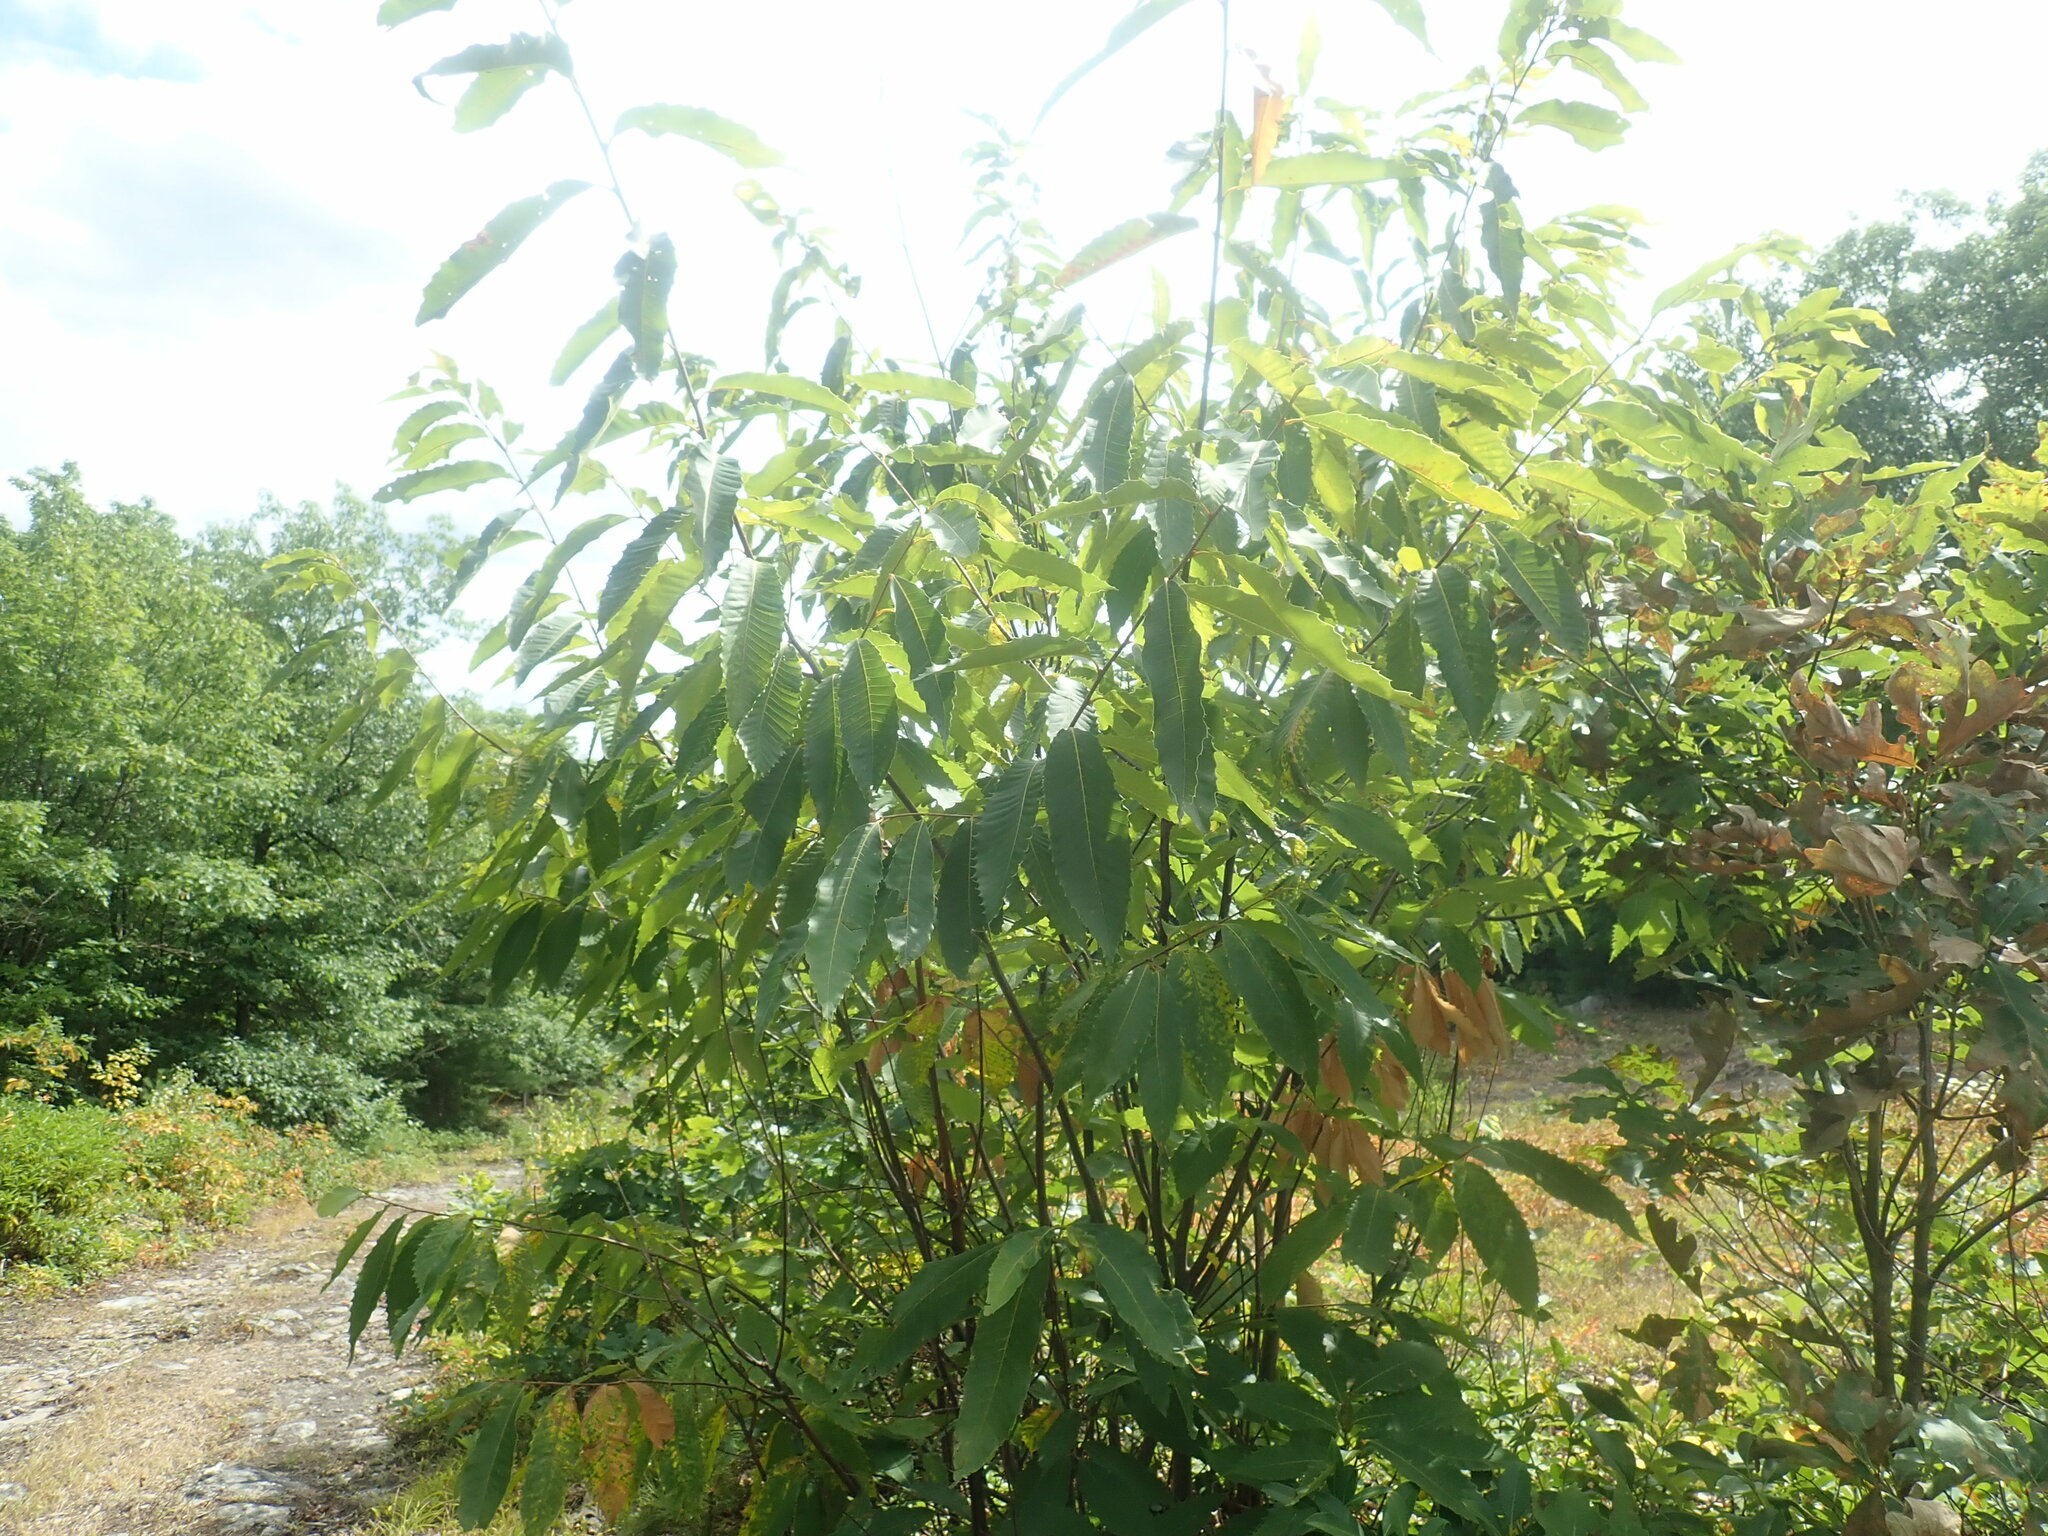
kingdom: Plantae
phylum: Tracheophyta
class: Magnoliopsida
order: Fagales
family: Fagaceae
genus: Castanea
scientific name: Castanea dentata
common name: American chestnut
